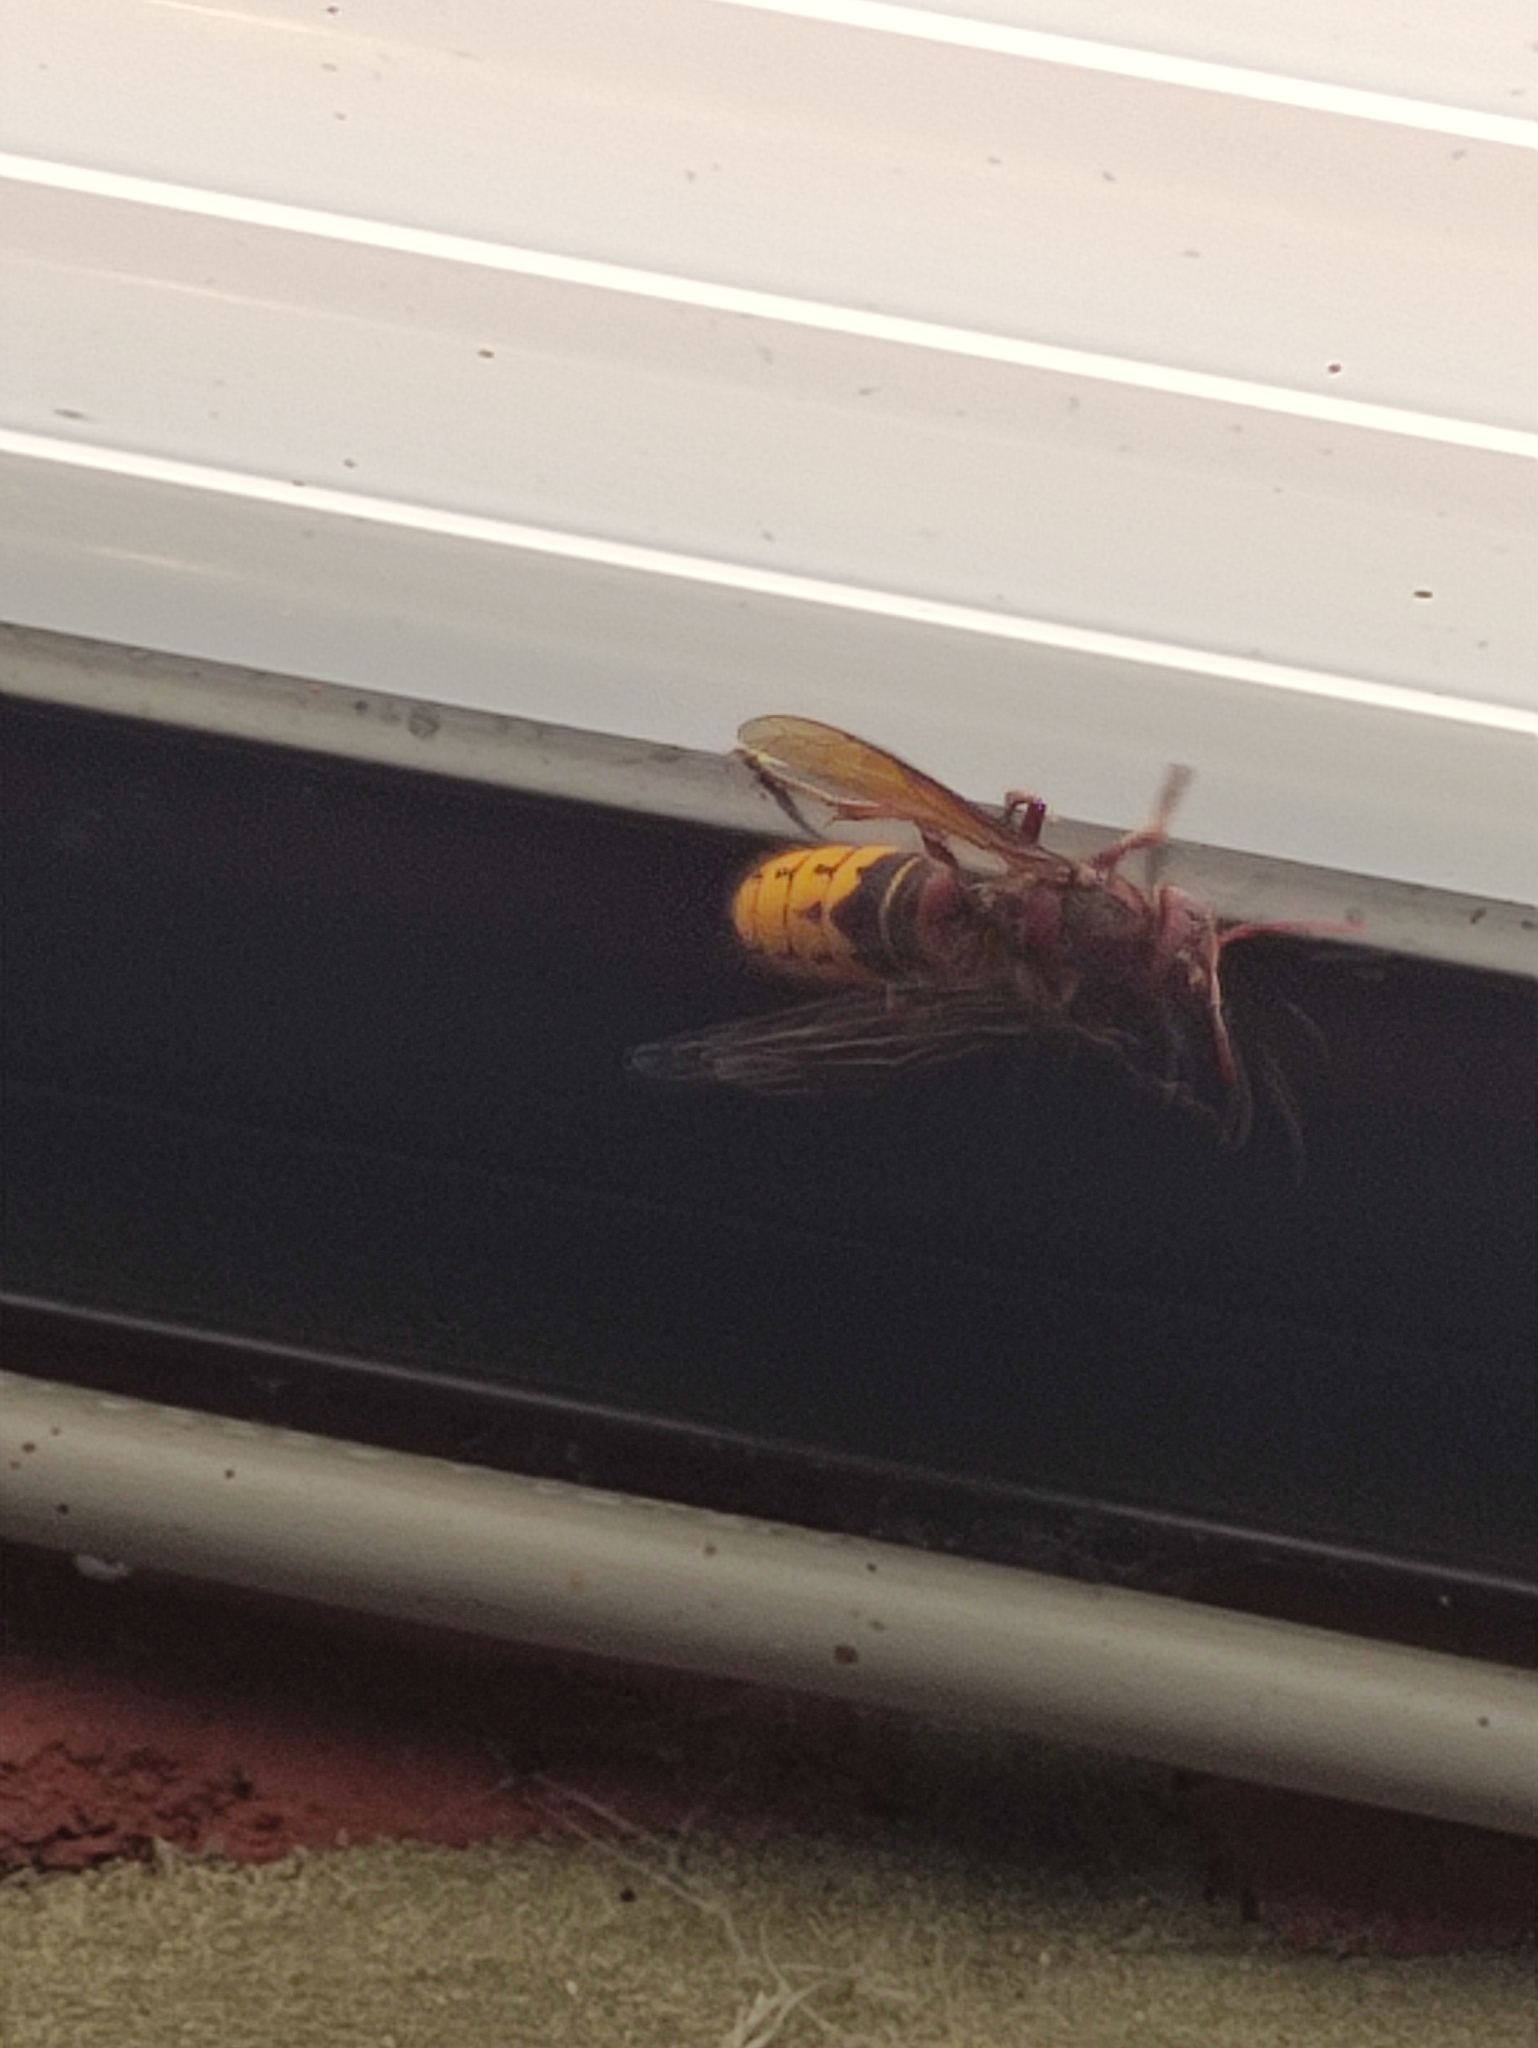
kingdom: Animalia
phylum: Arthropoda
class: Insecta
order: Hymenoptera
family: Vespidae
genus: Vespa
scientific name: Vespa crabro
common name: Hornet
